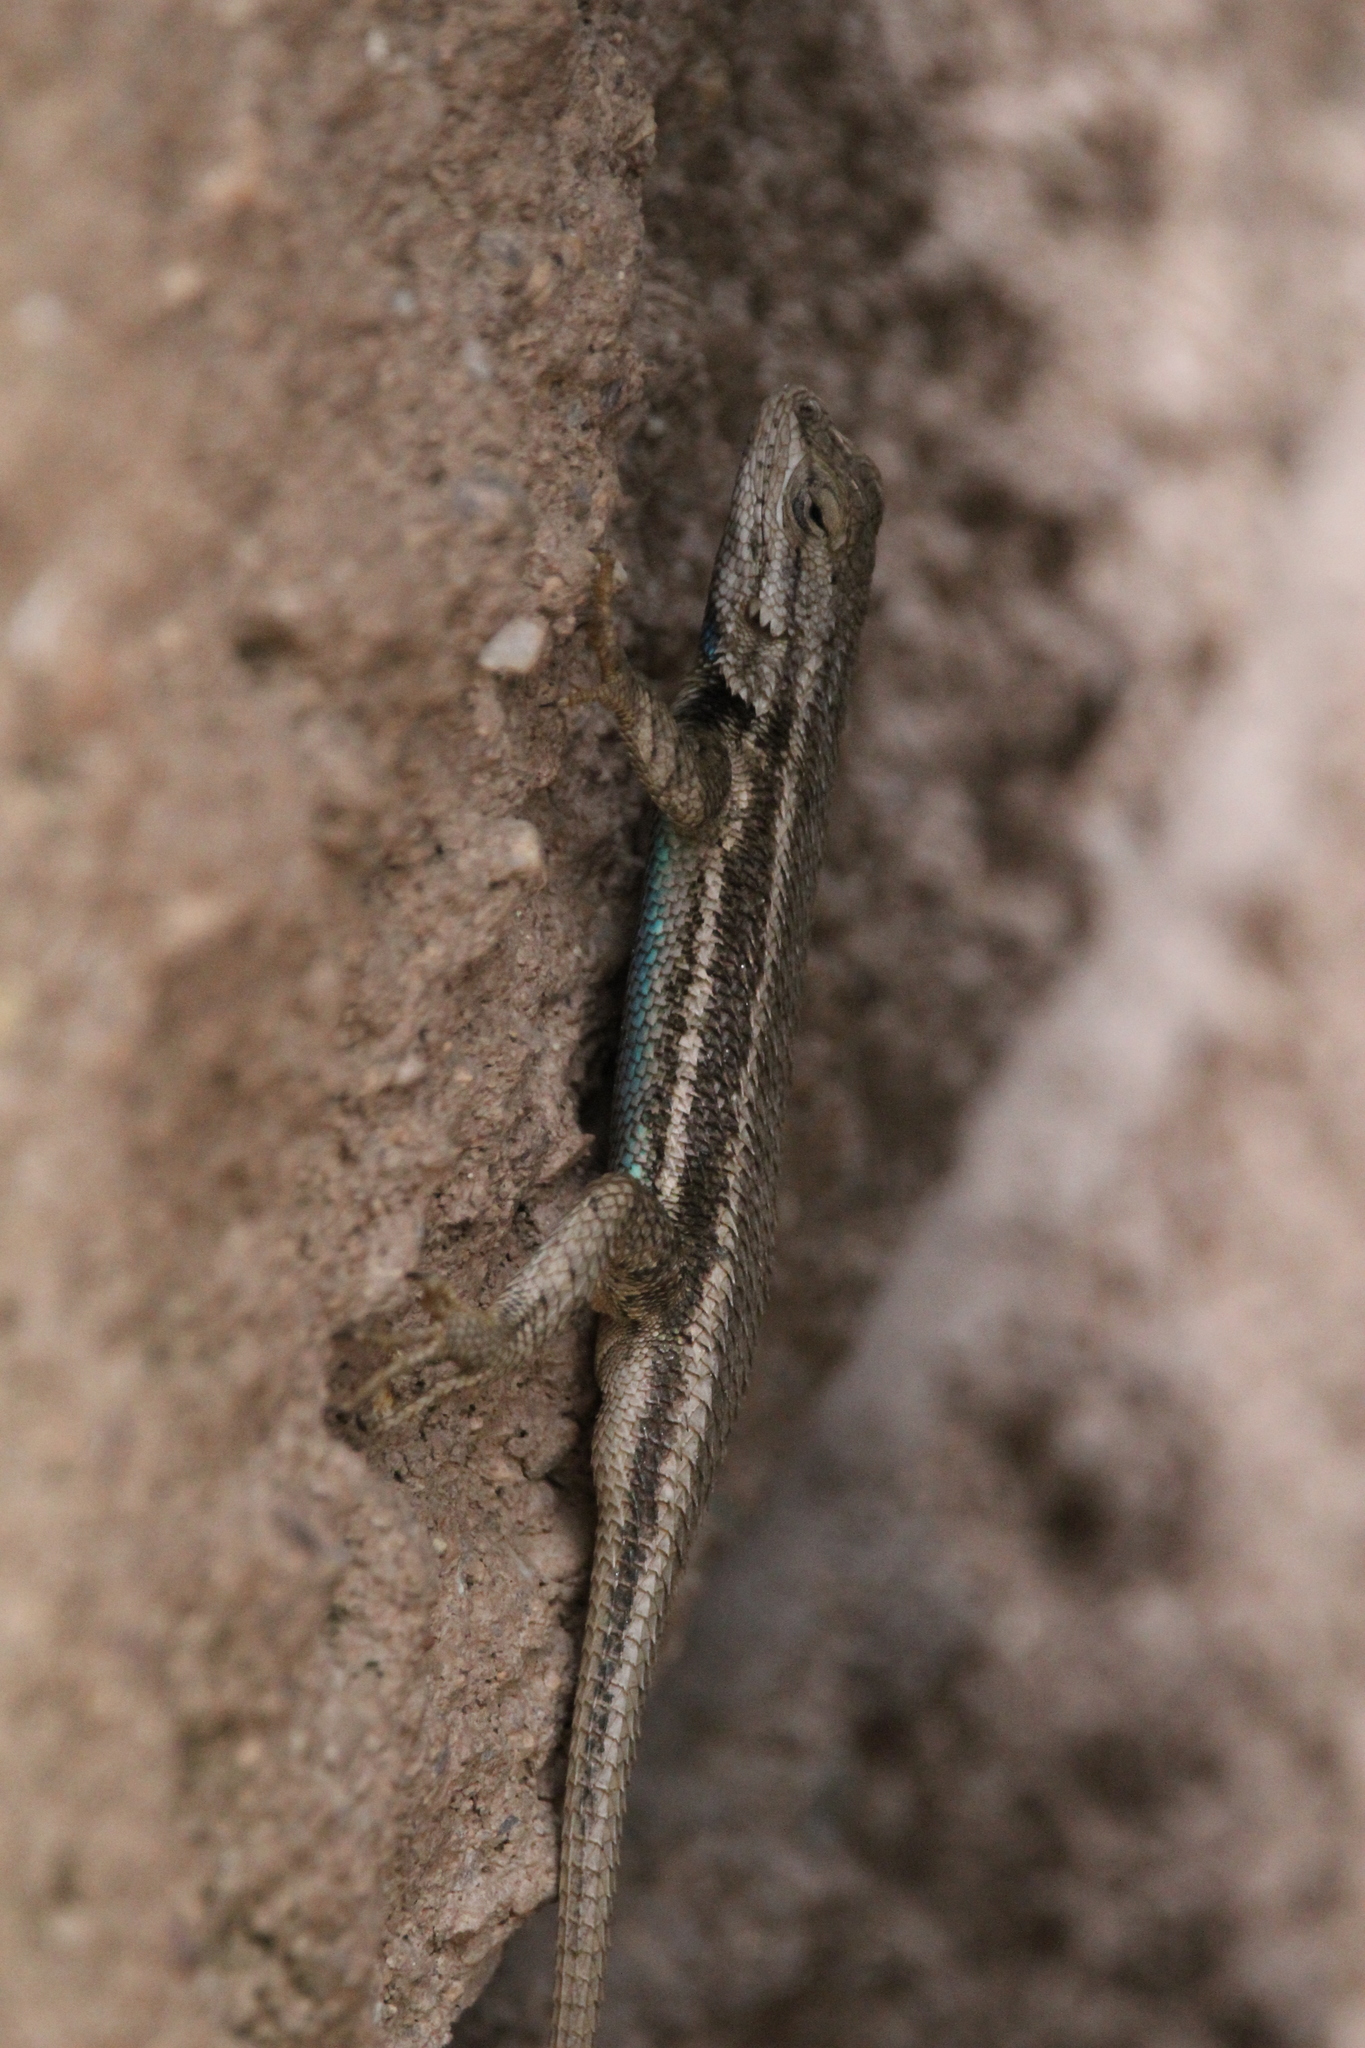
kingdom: Animalia
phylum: Chordata
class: Squamata
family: Phrynosomatidae
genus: Sceloporus
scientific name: Sceloporus cowlesi
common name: White sands prairie lizard
